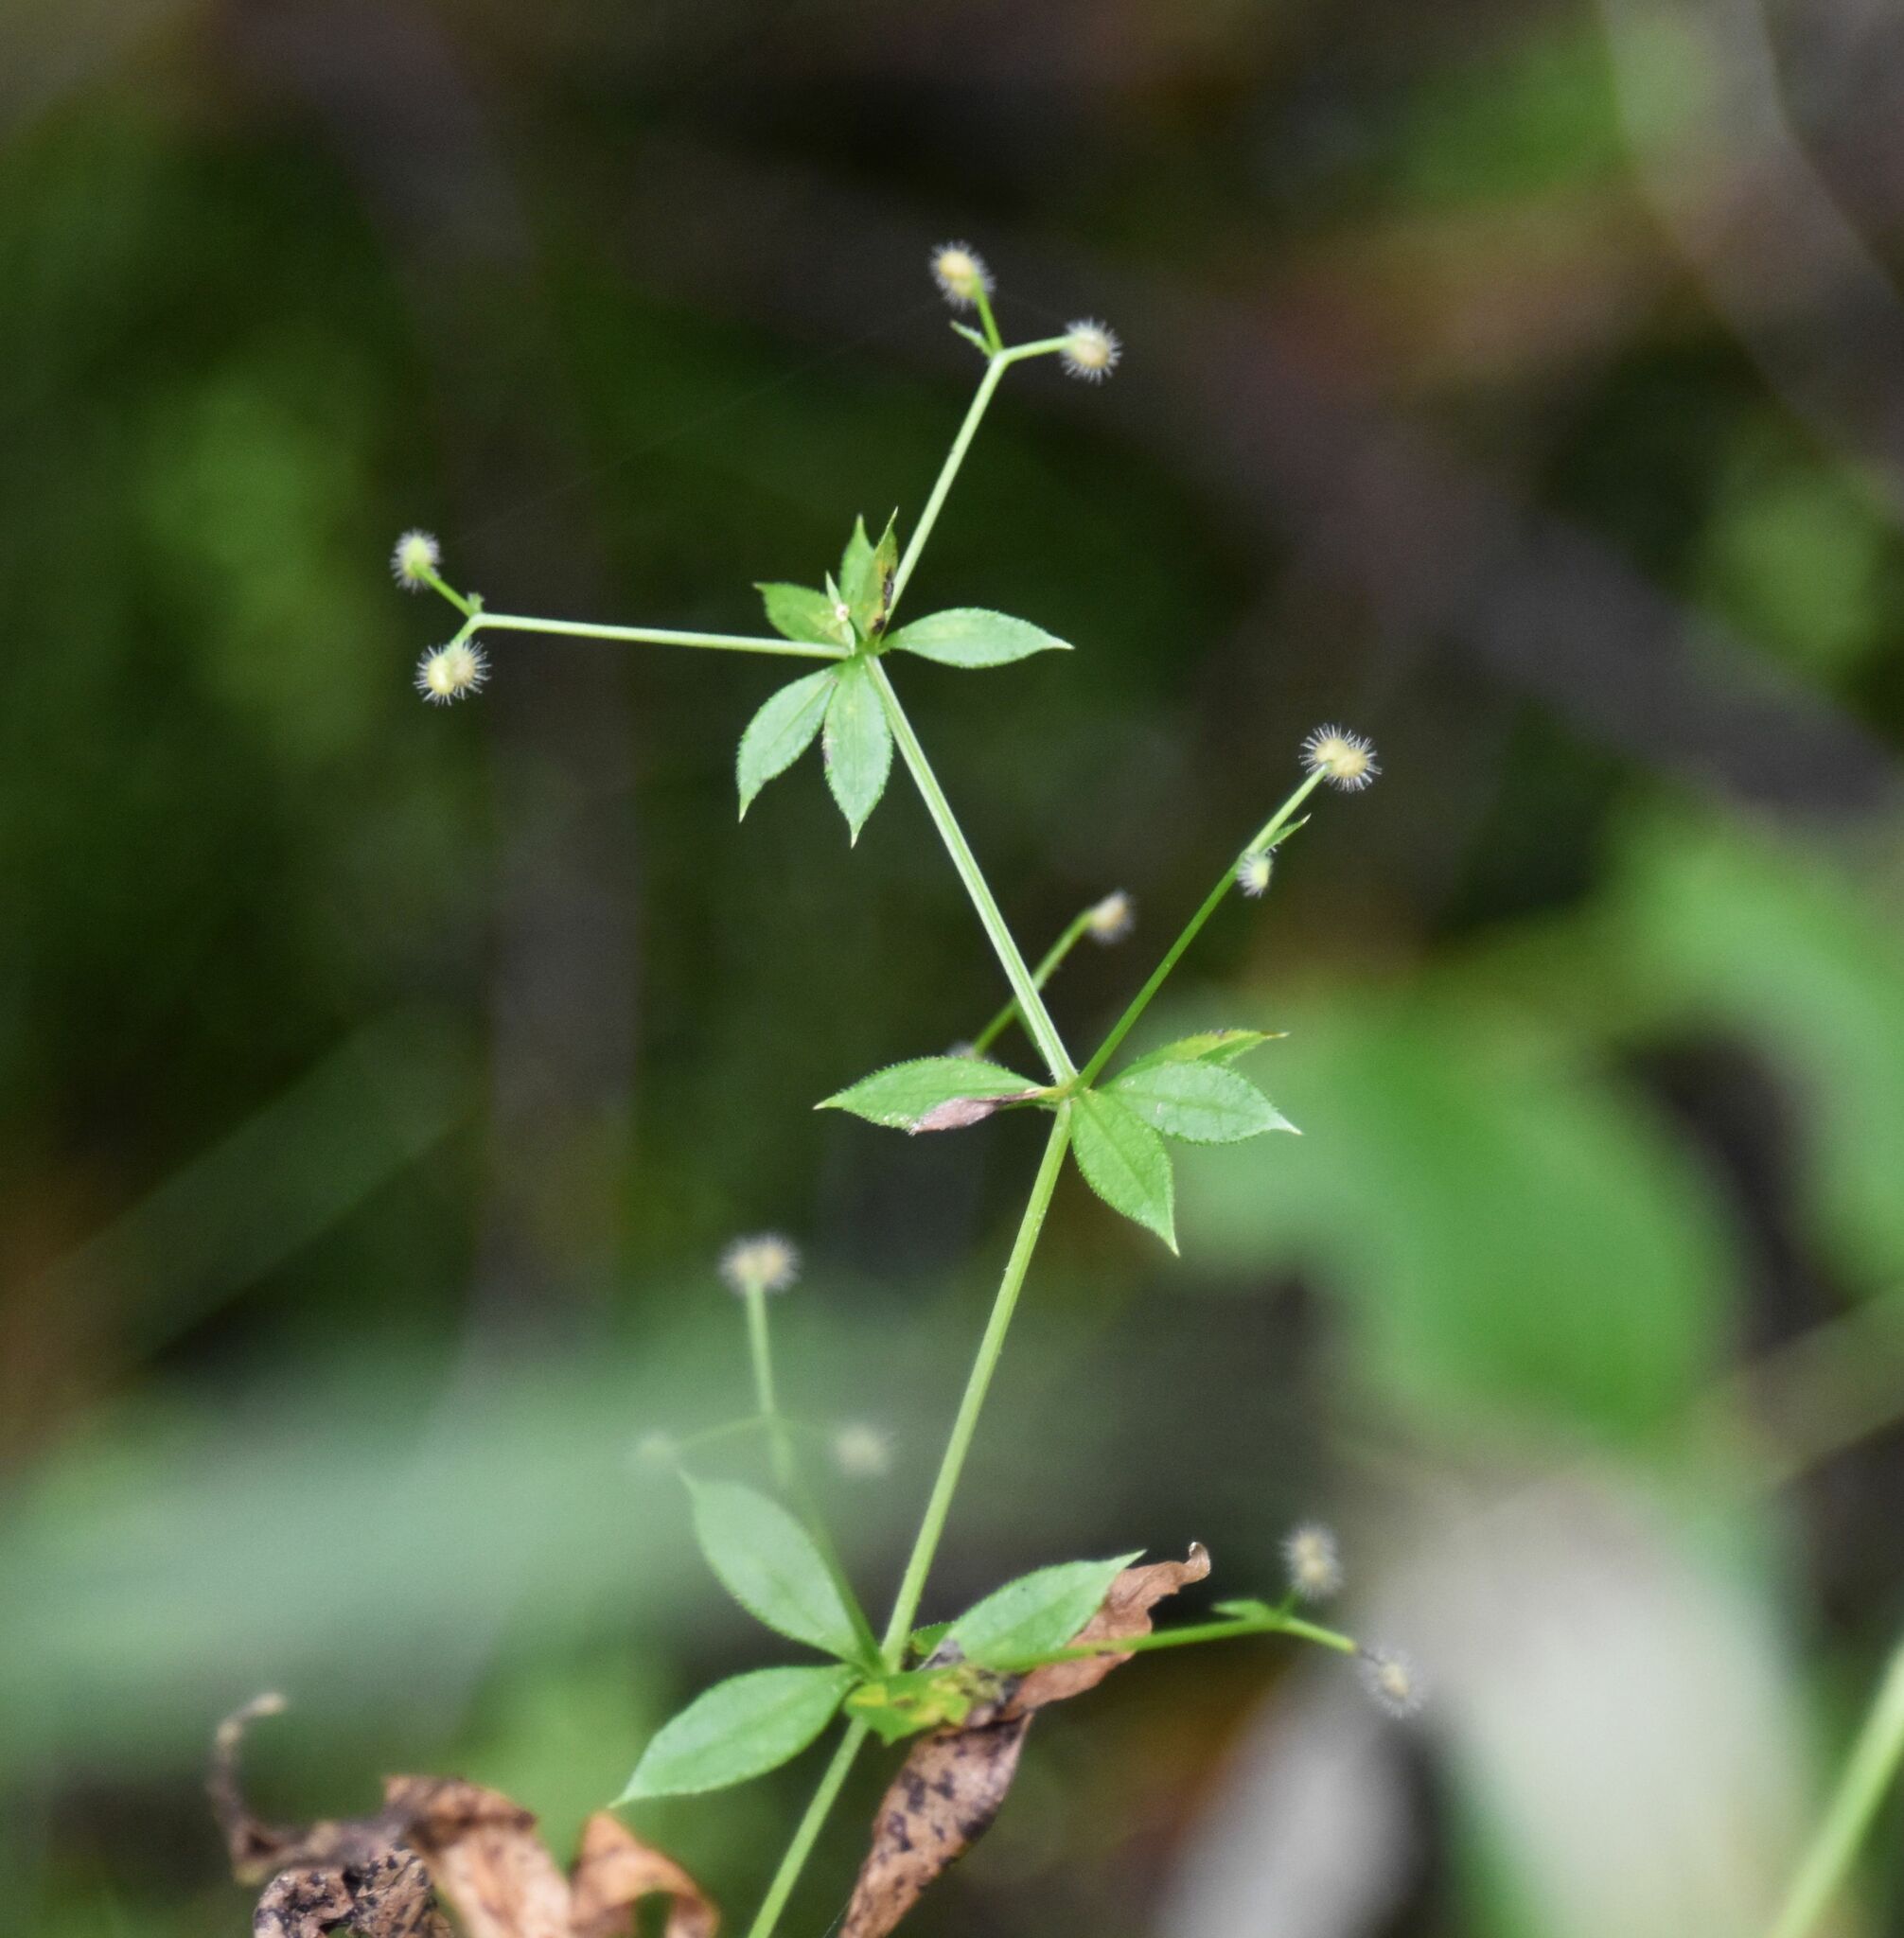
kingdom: Plantae
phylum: Tracheophyta
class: Magnoliopsida
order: Gentianales
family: Rubiaceae
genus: Galium
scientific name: Galium triflorum
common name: Fragrant bedstraw
